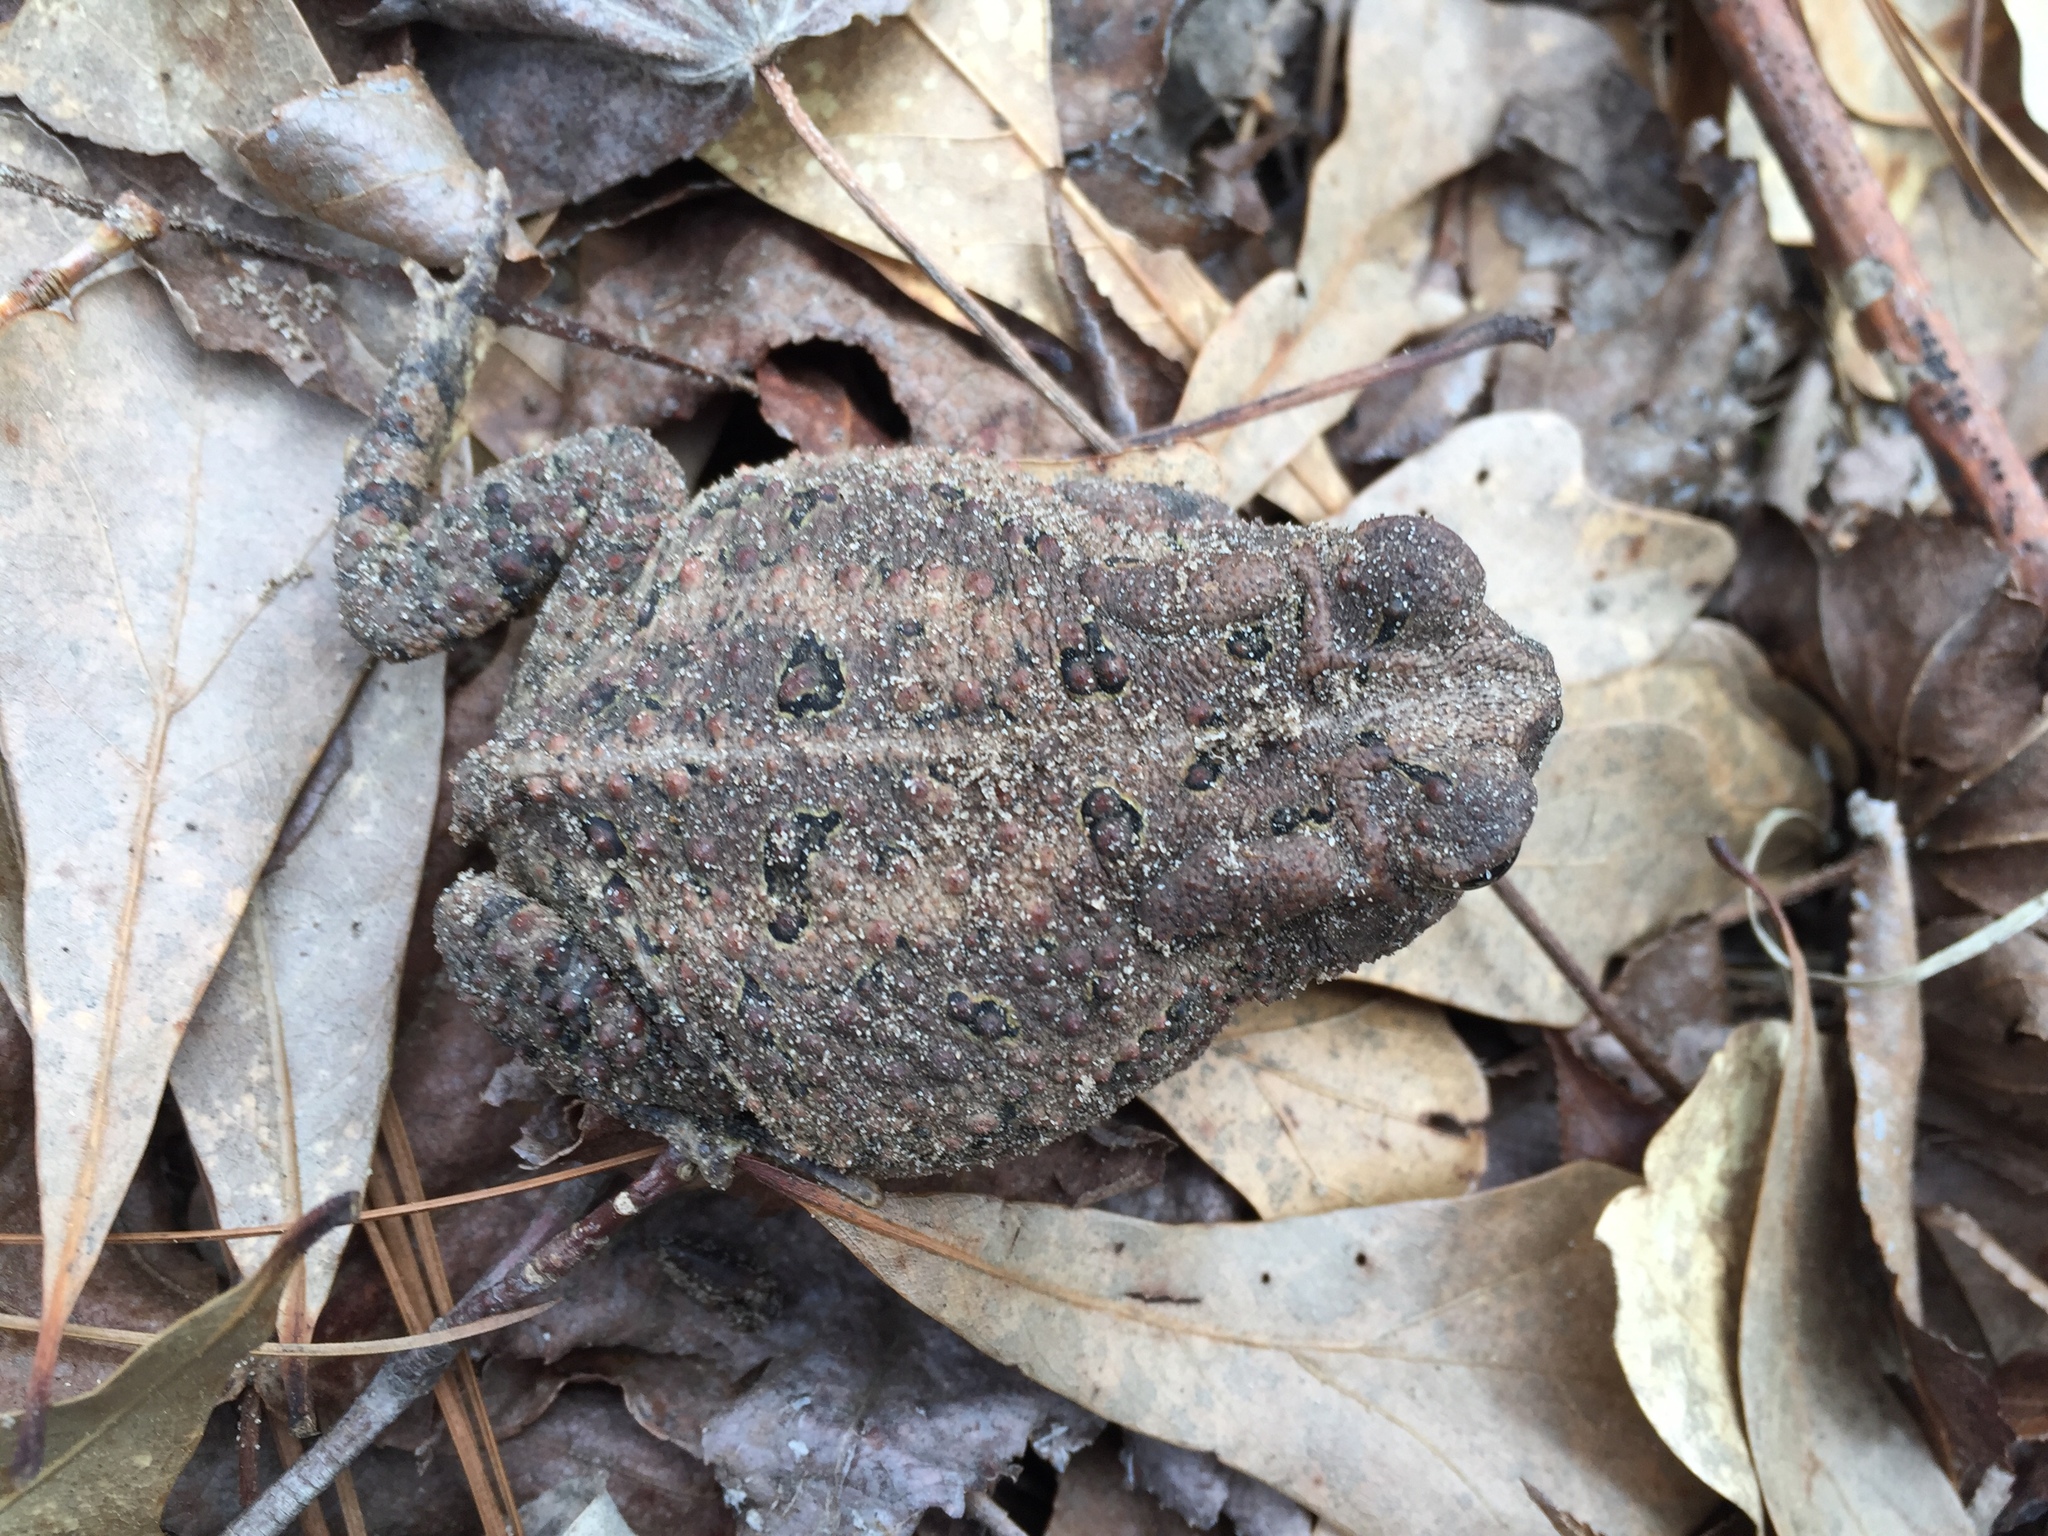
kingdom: Animalia
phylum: Chordata
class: Amphibia
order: Anura
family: Bufonidae
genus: Anaxyrus
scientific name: Anaxyrus fowleri
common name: Fowler's toad
